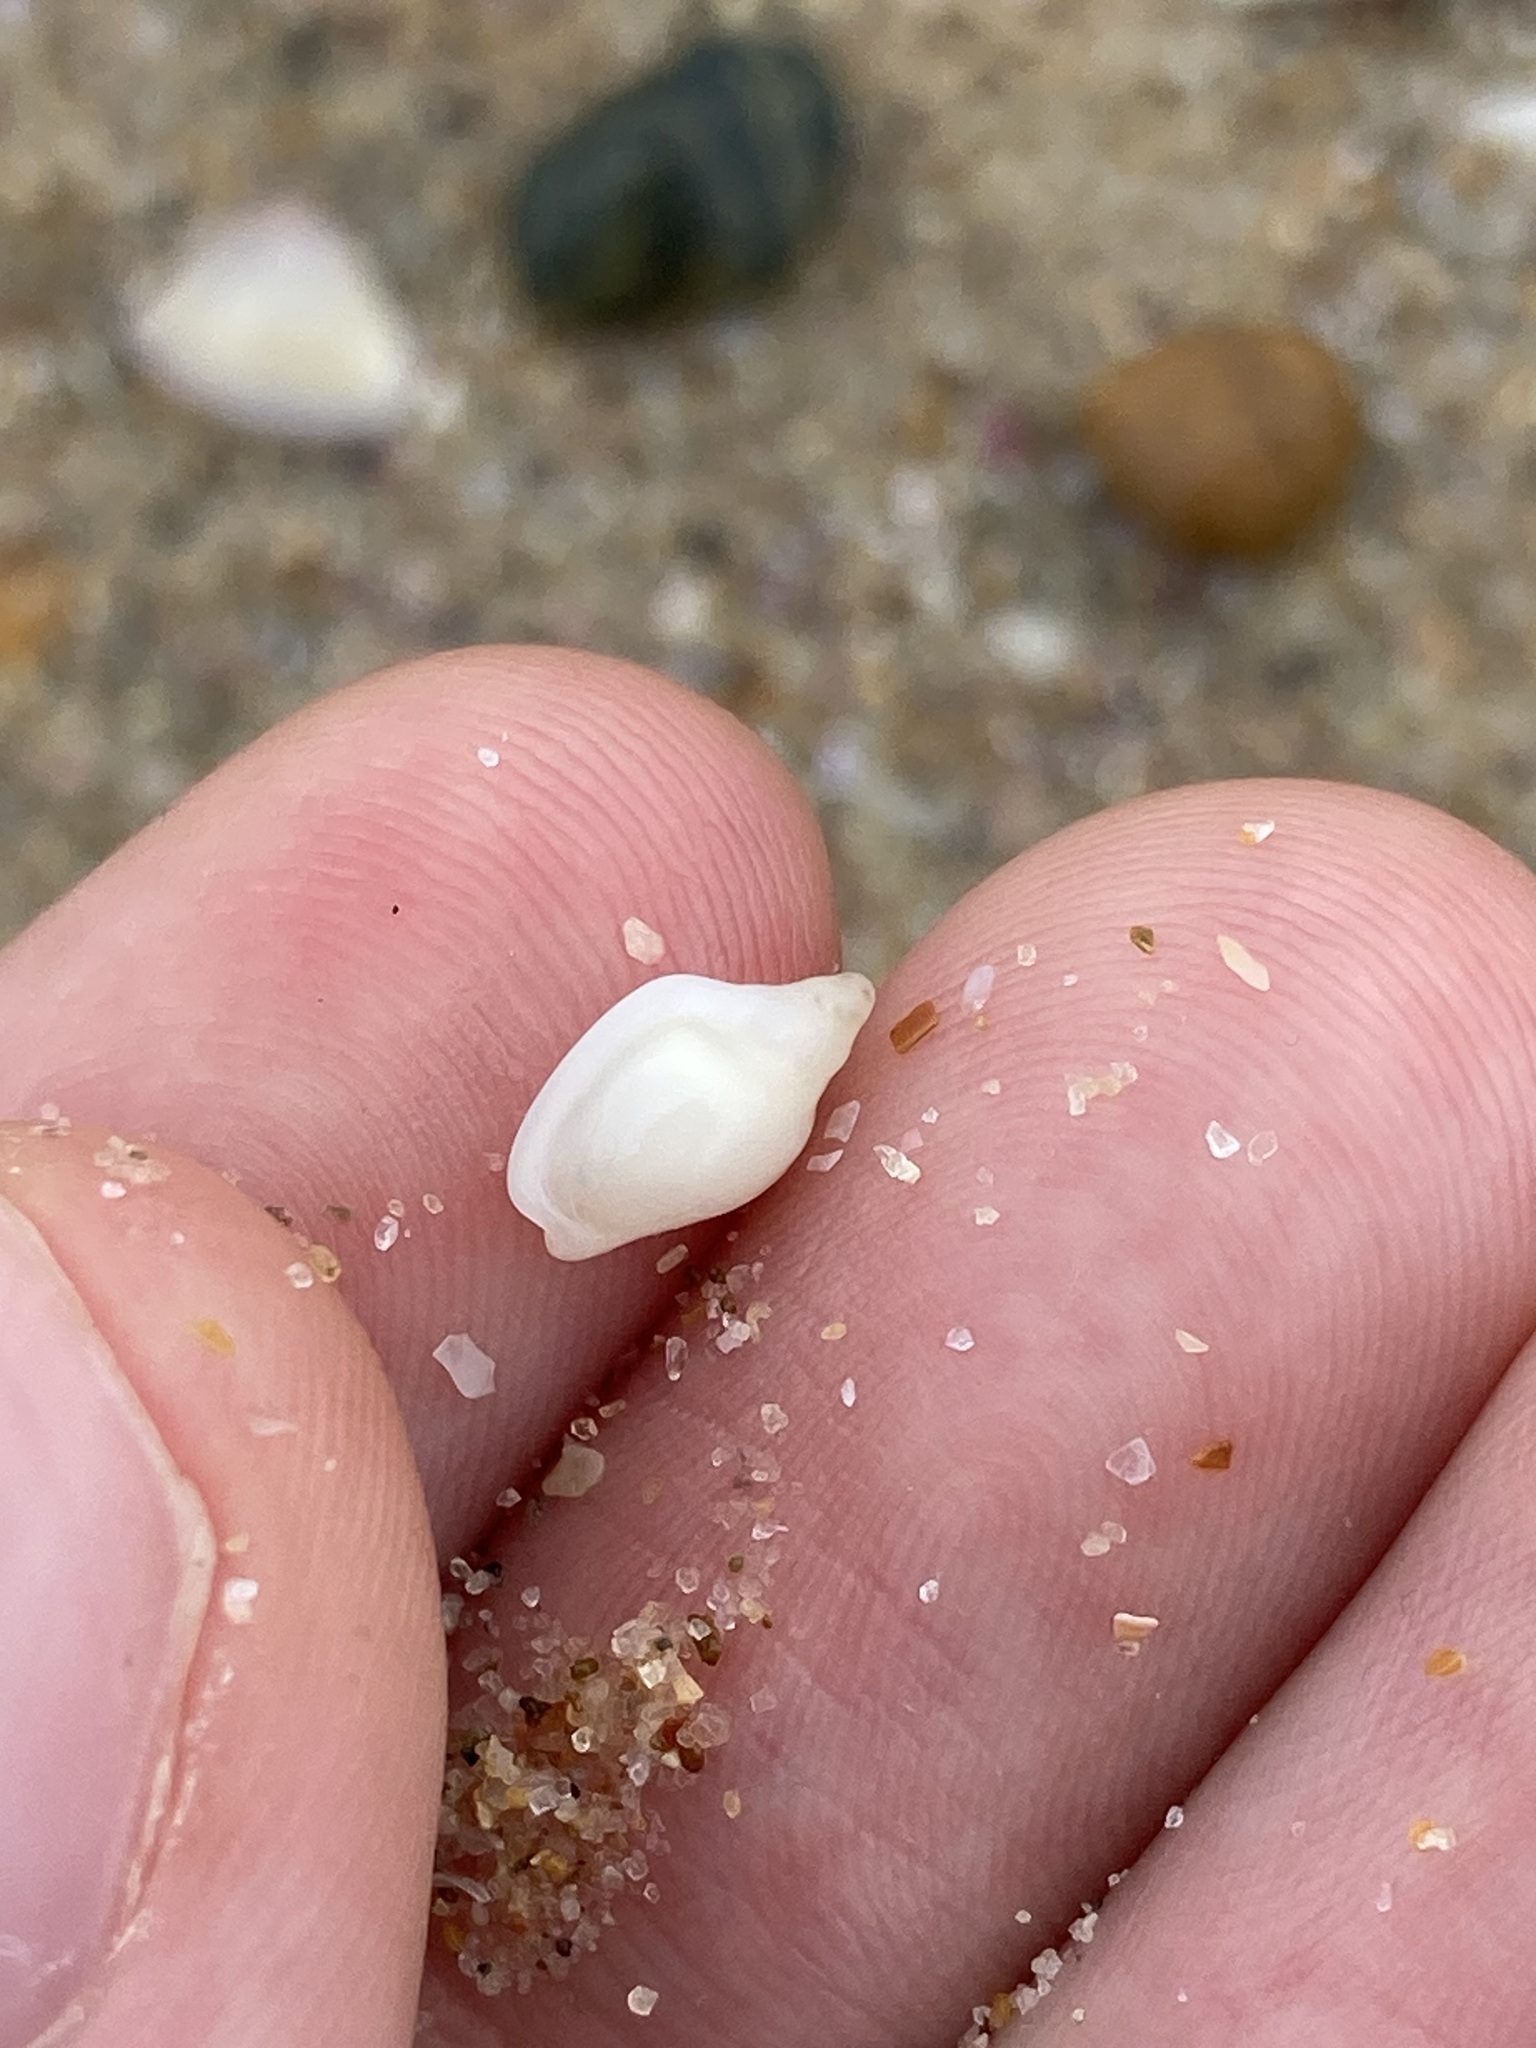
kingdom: Animalia
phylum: Mollusca
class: Gastropoda
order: Neogastropoda
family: Marginellidae
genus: Austroginella
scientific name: Austroginella johnstoni
